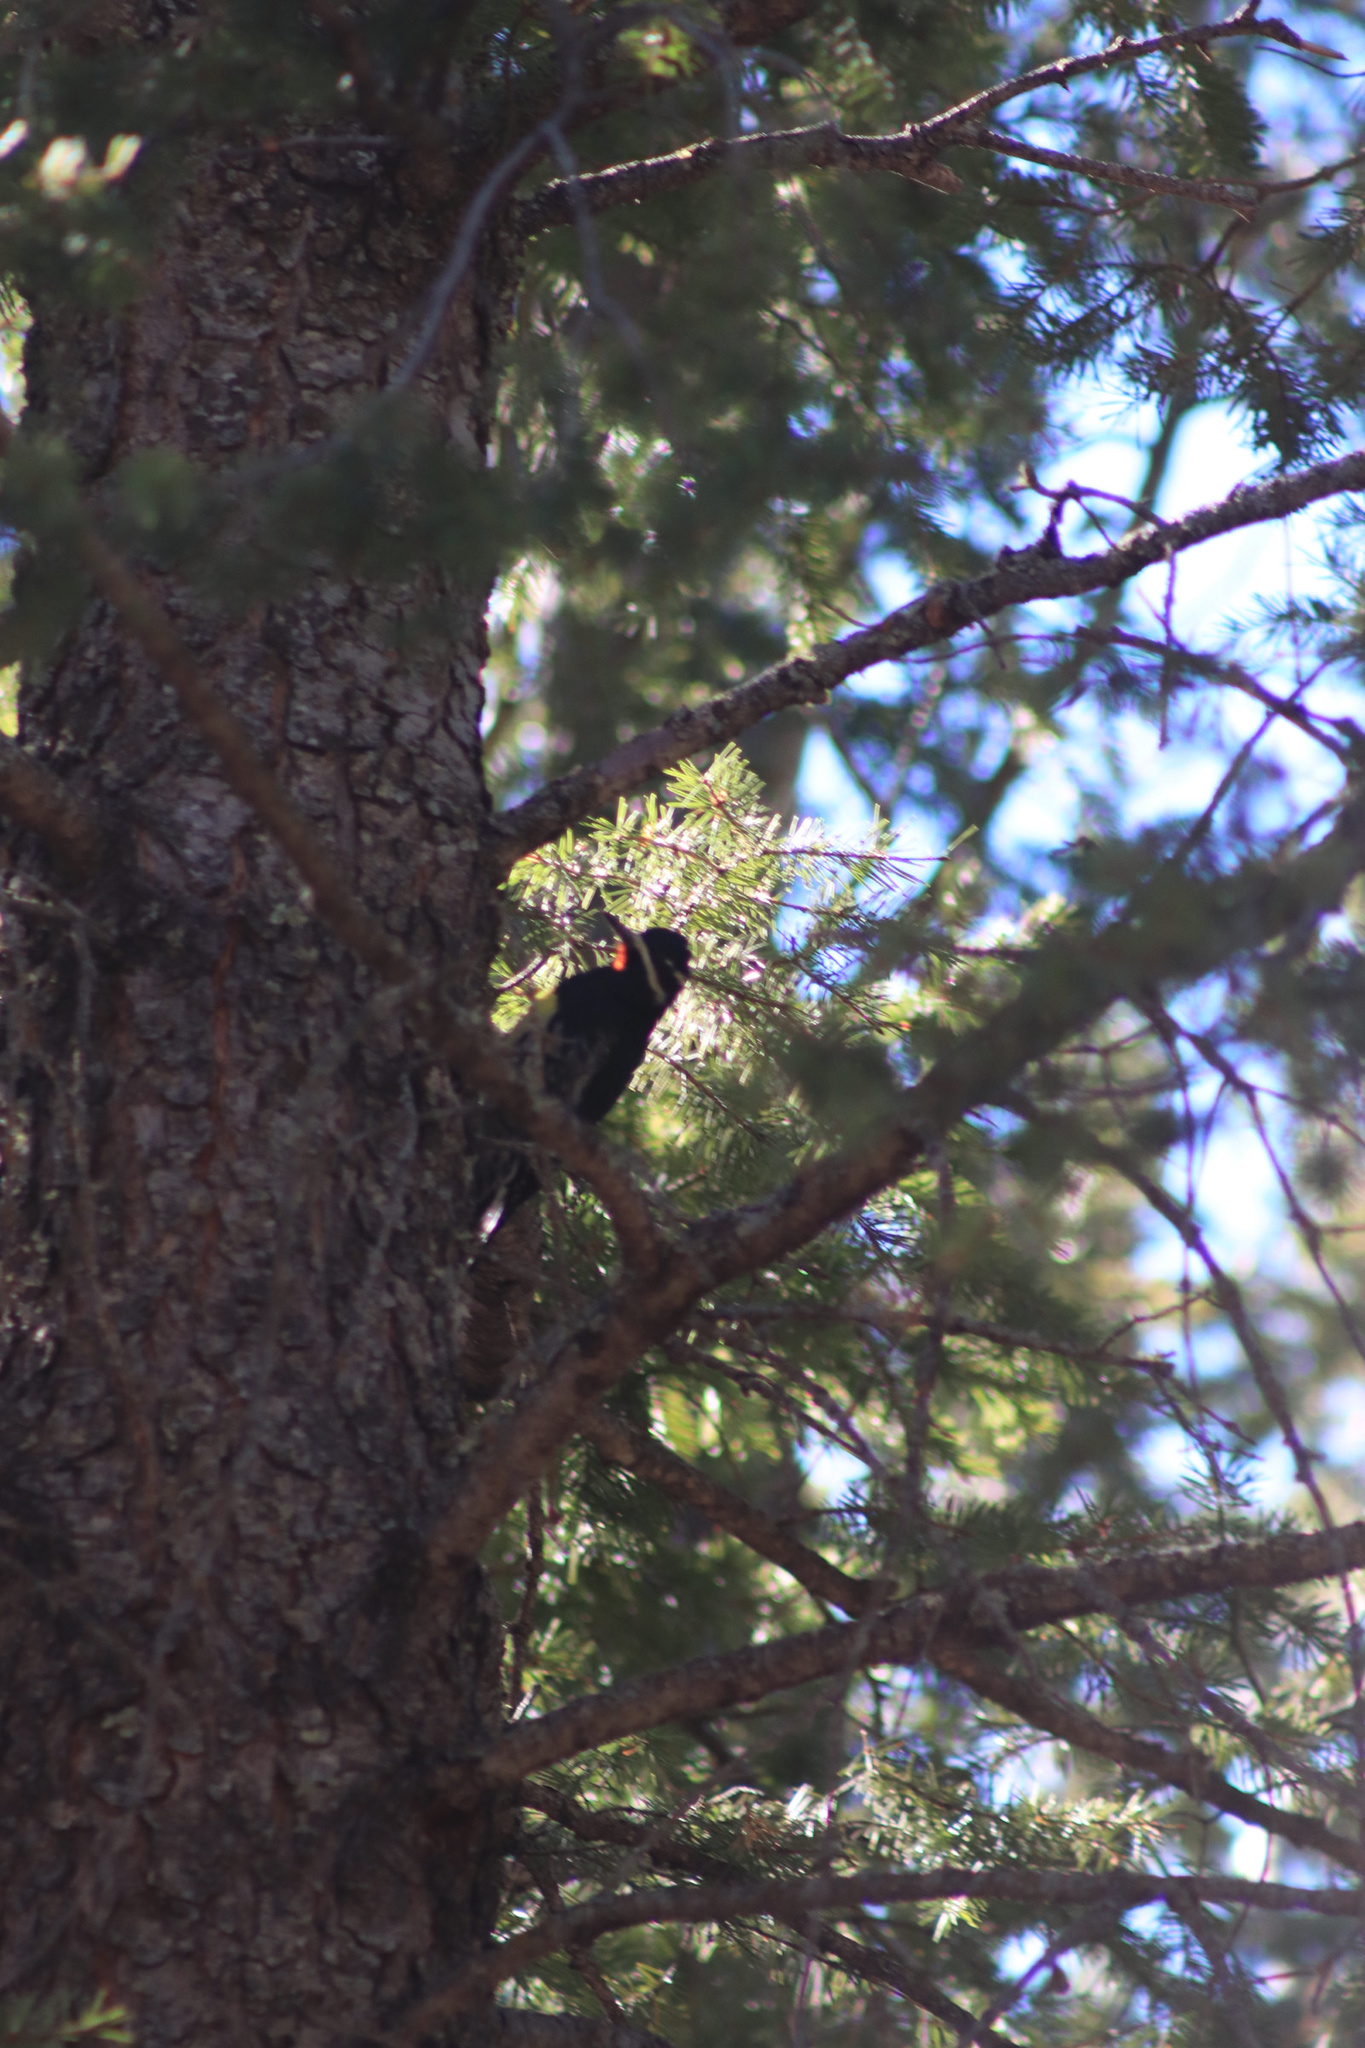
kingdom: Animalia
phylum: Chordata
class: Aves
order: Piciformes
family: Picidae
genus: Sphyrapicus
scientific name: Sphyrapicus thyroideus
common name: Williamson's sapsucker
